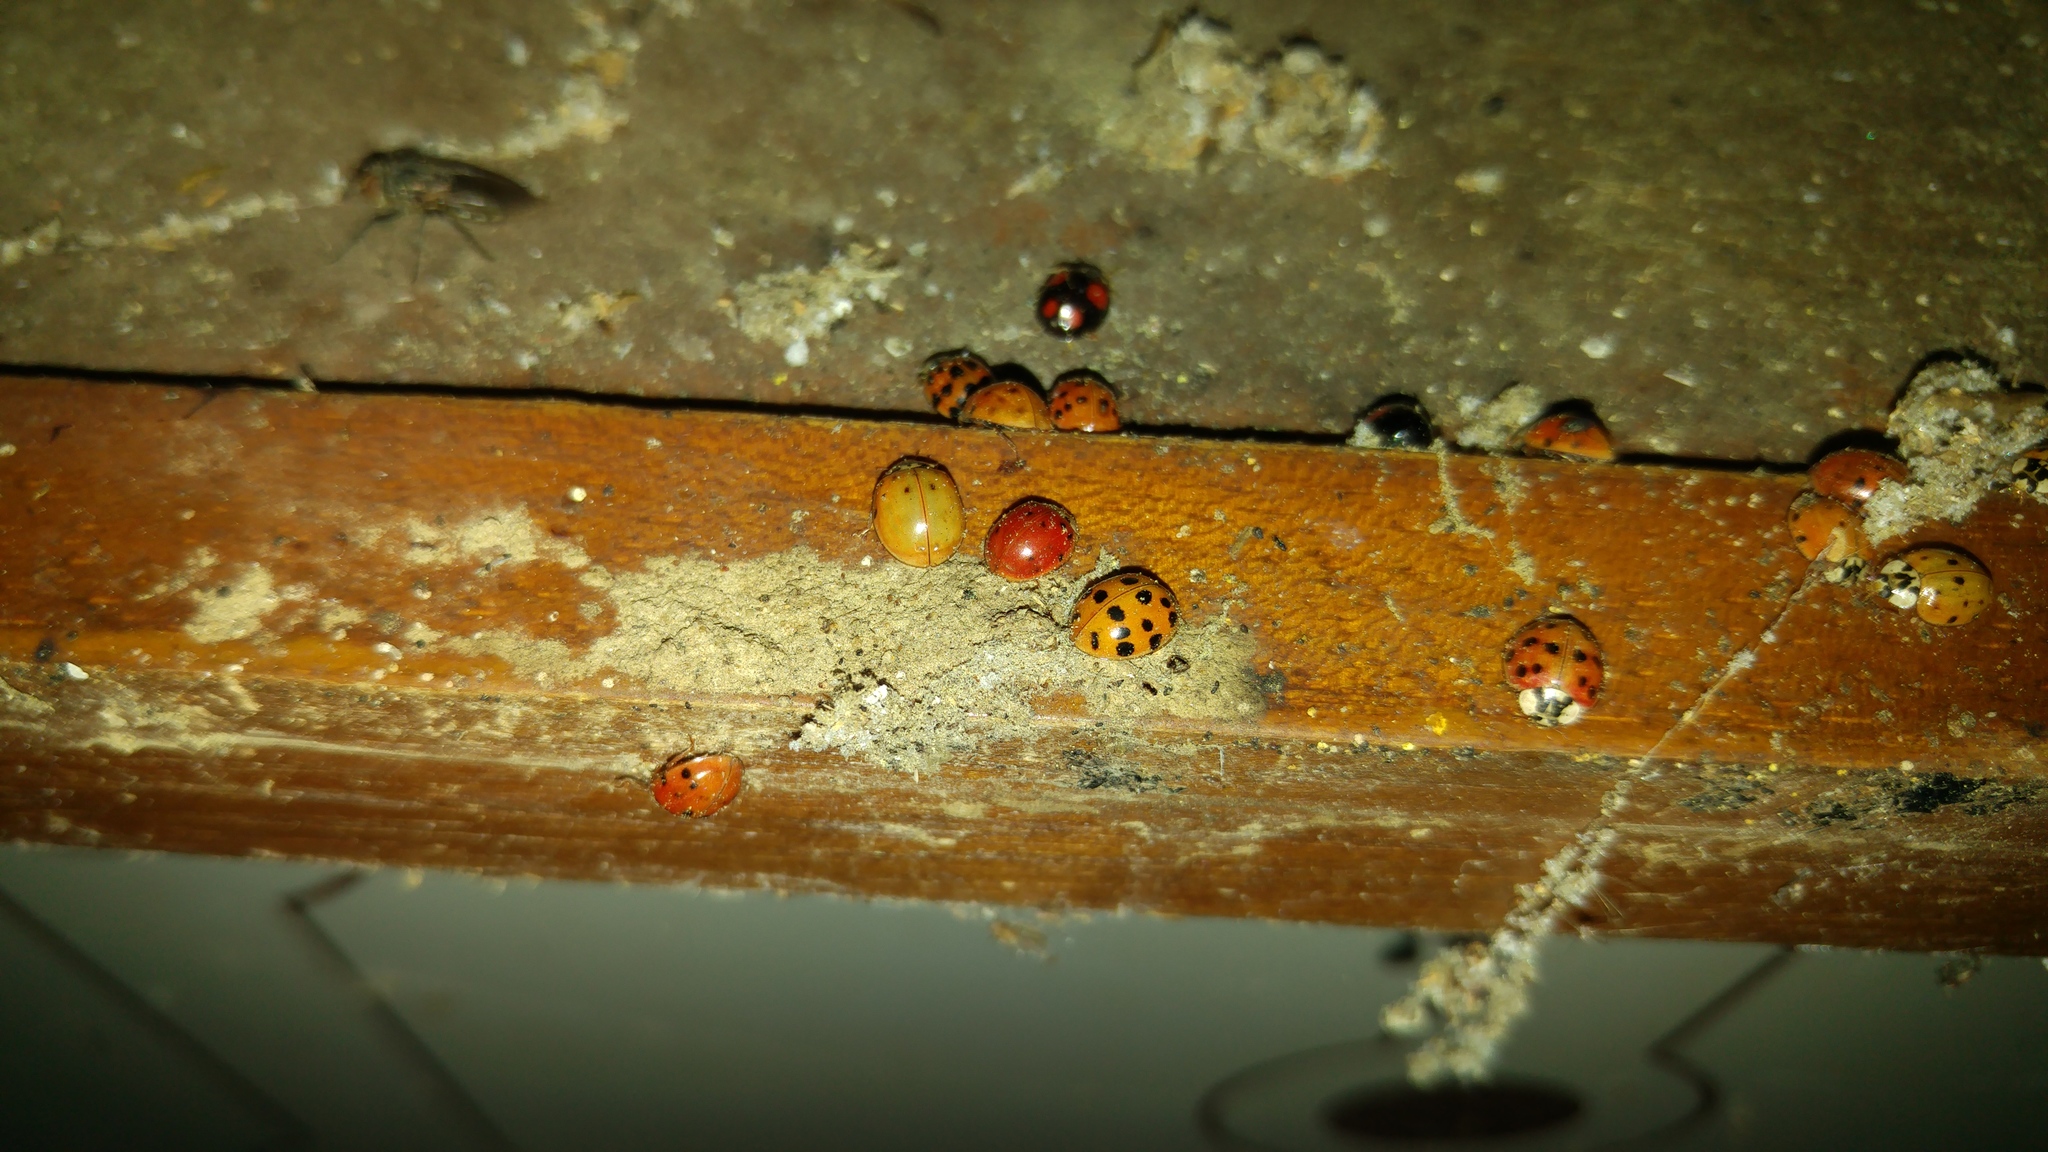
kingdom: Animalia
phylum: Arthropoda
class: Insecta
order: Coleoptera
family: Coccinellidae
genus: Harmonia
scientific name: Harmonia axyridis
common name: Harlequin ladybird
